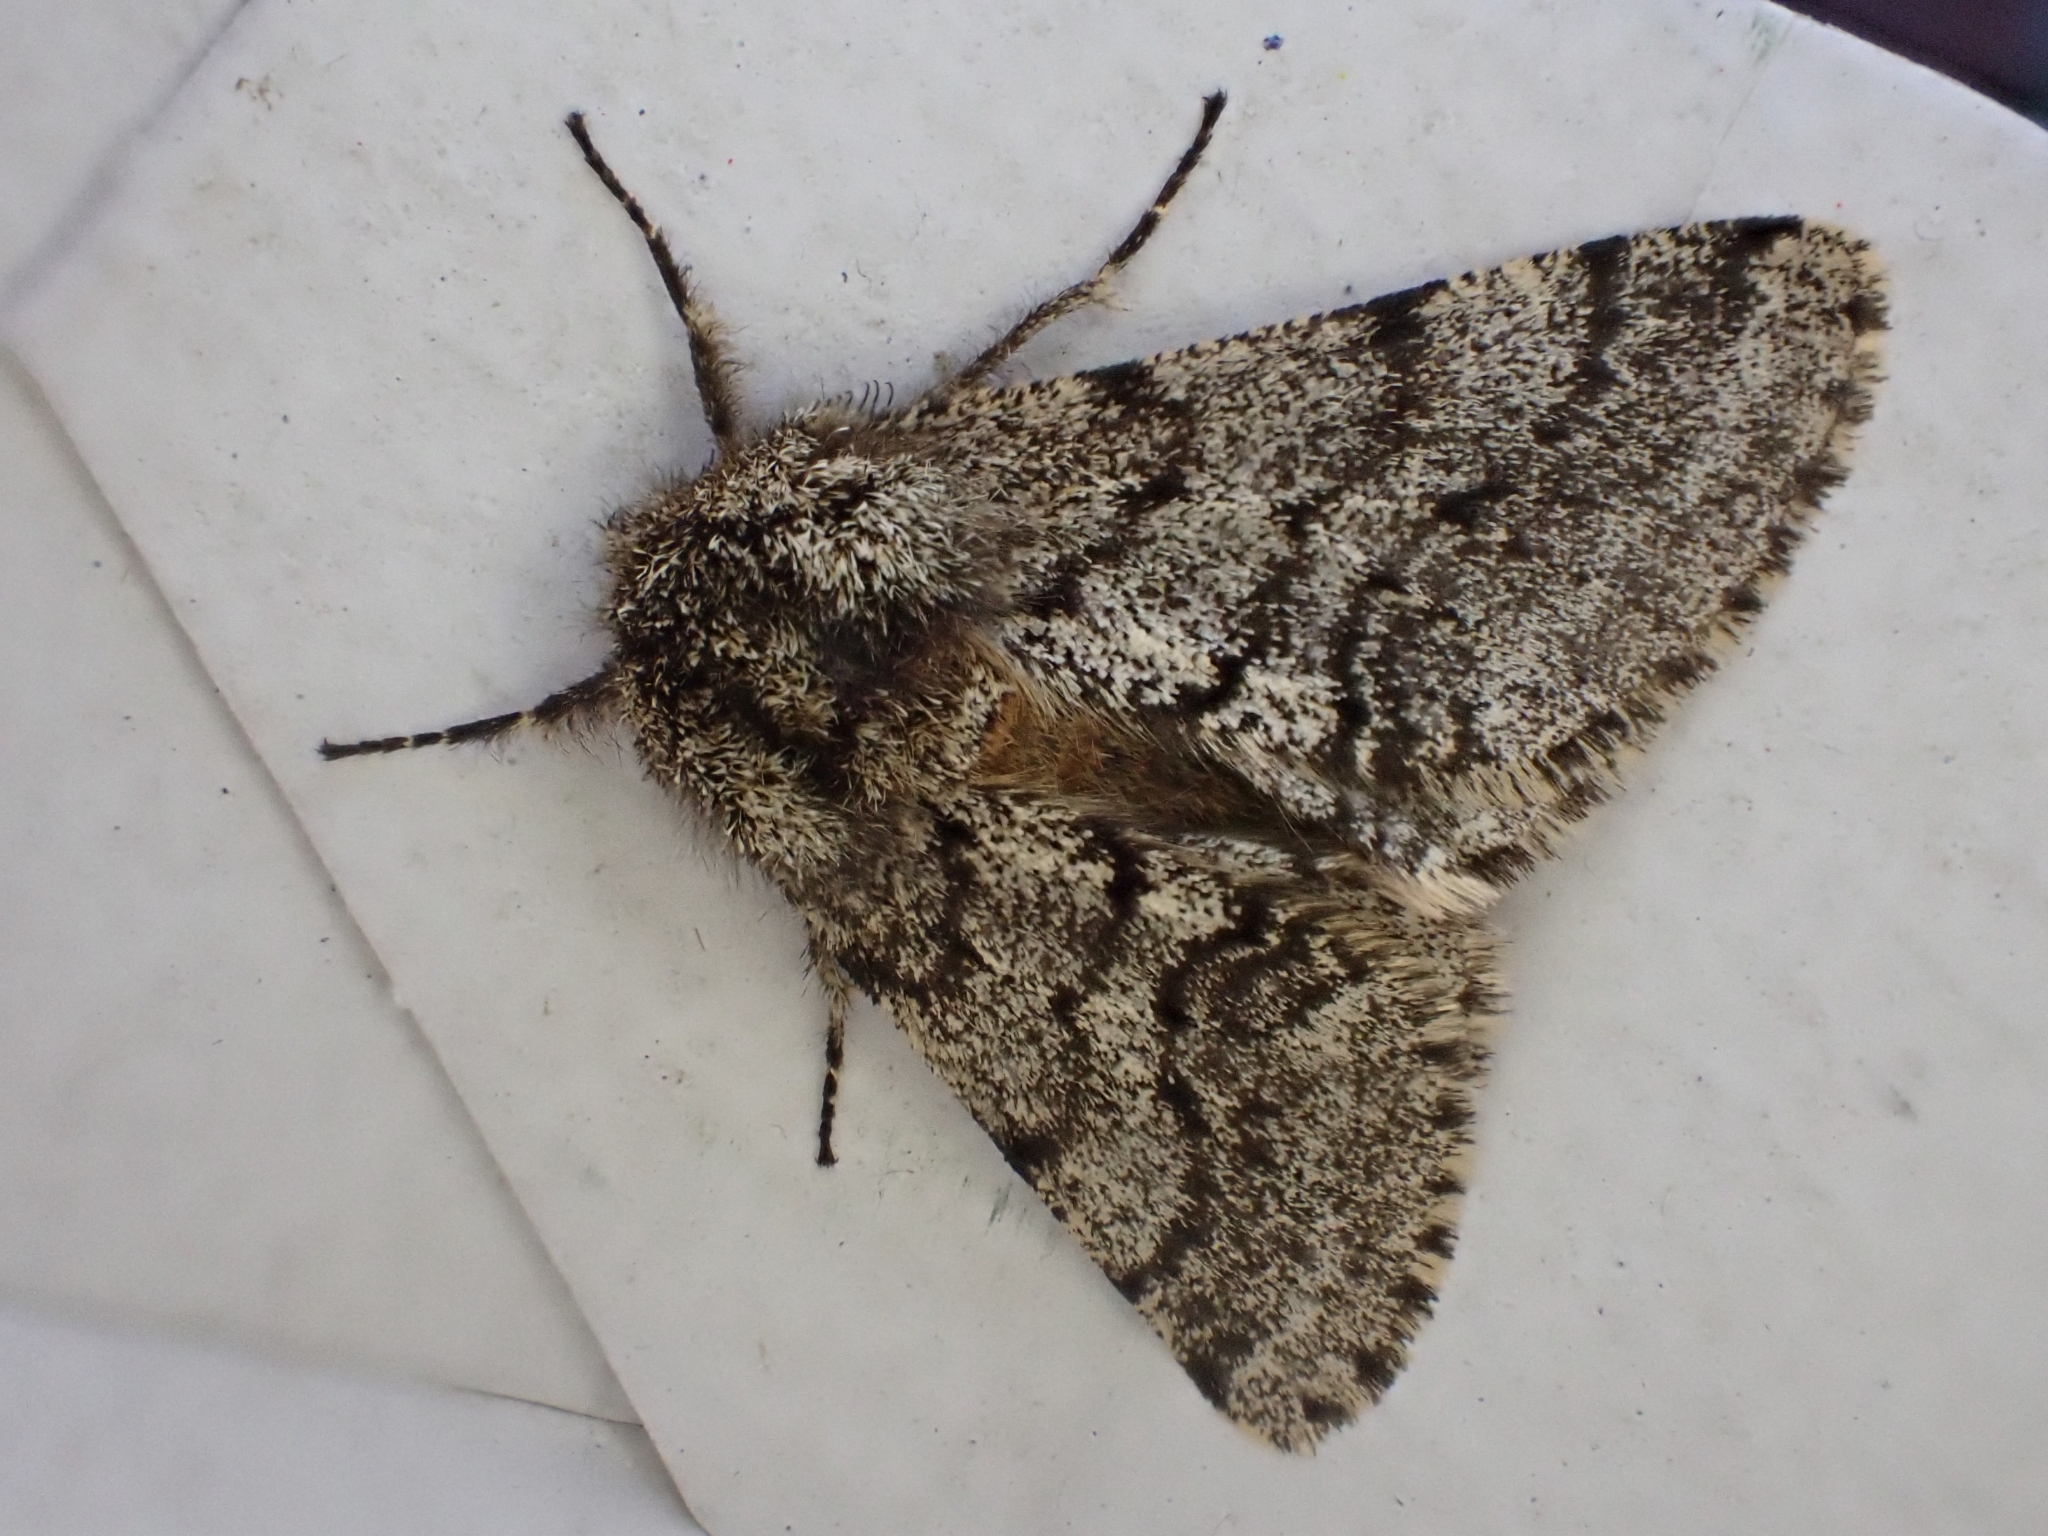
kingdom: Animalia
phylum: Arthropoda
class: Insecta
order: Lepidoptera
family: Geometridae
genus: Lycia
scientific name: Lycia hirtaria
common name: Brindled beauty
